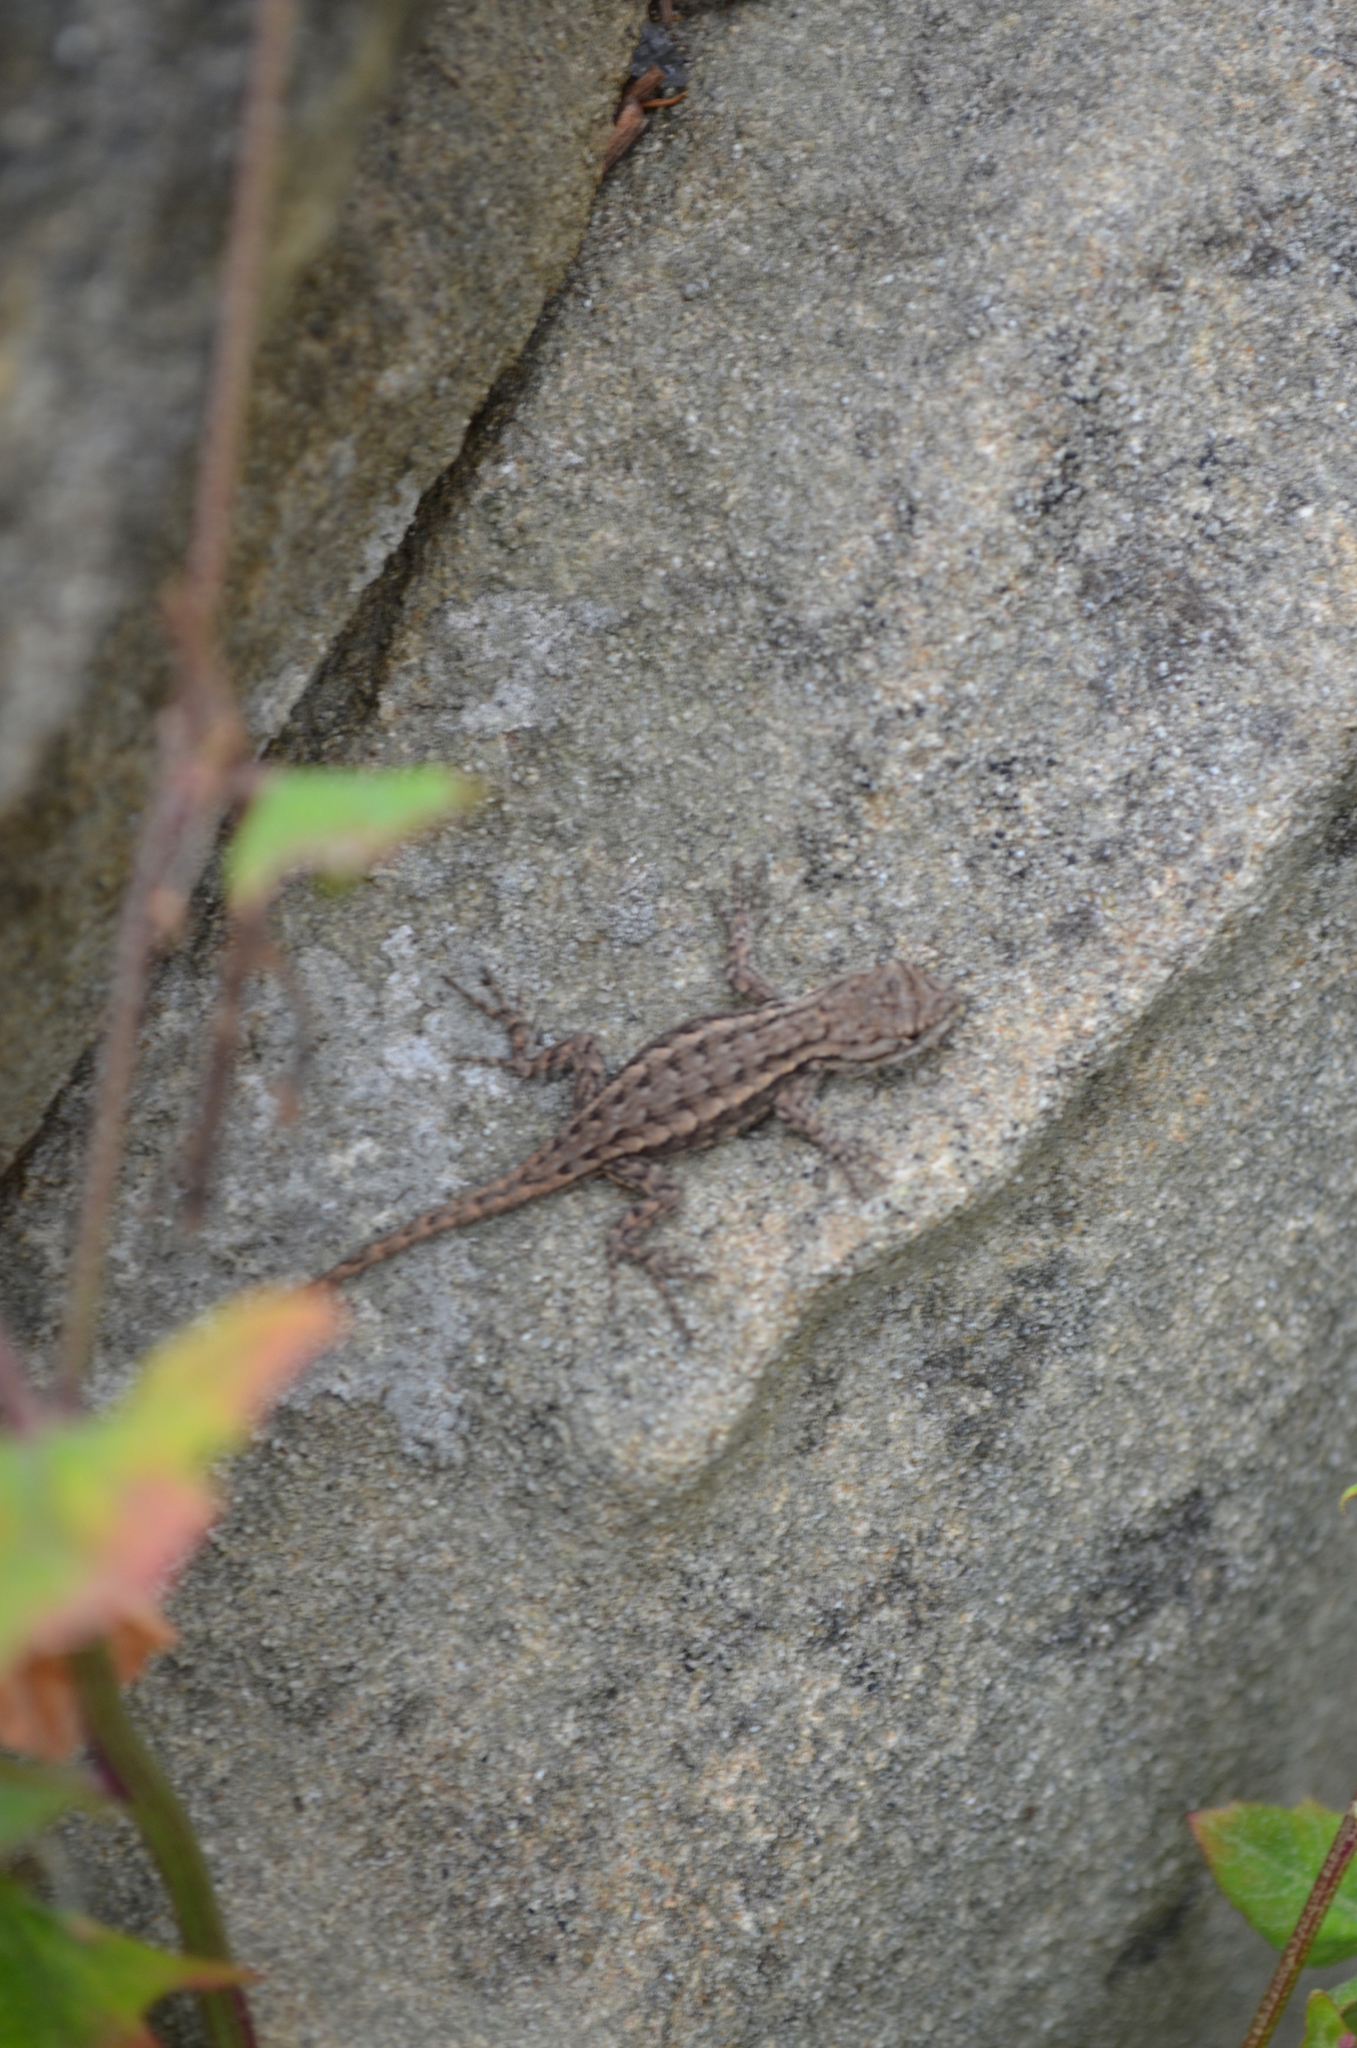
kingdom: Animalia
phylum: Chordata
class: Squamata
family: Phrynosomatidae
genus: Sceloporus
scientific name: Sceloporus occidentalis
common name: Western fence lizard
